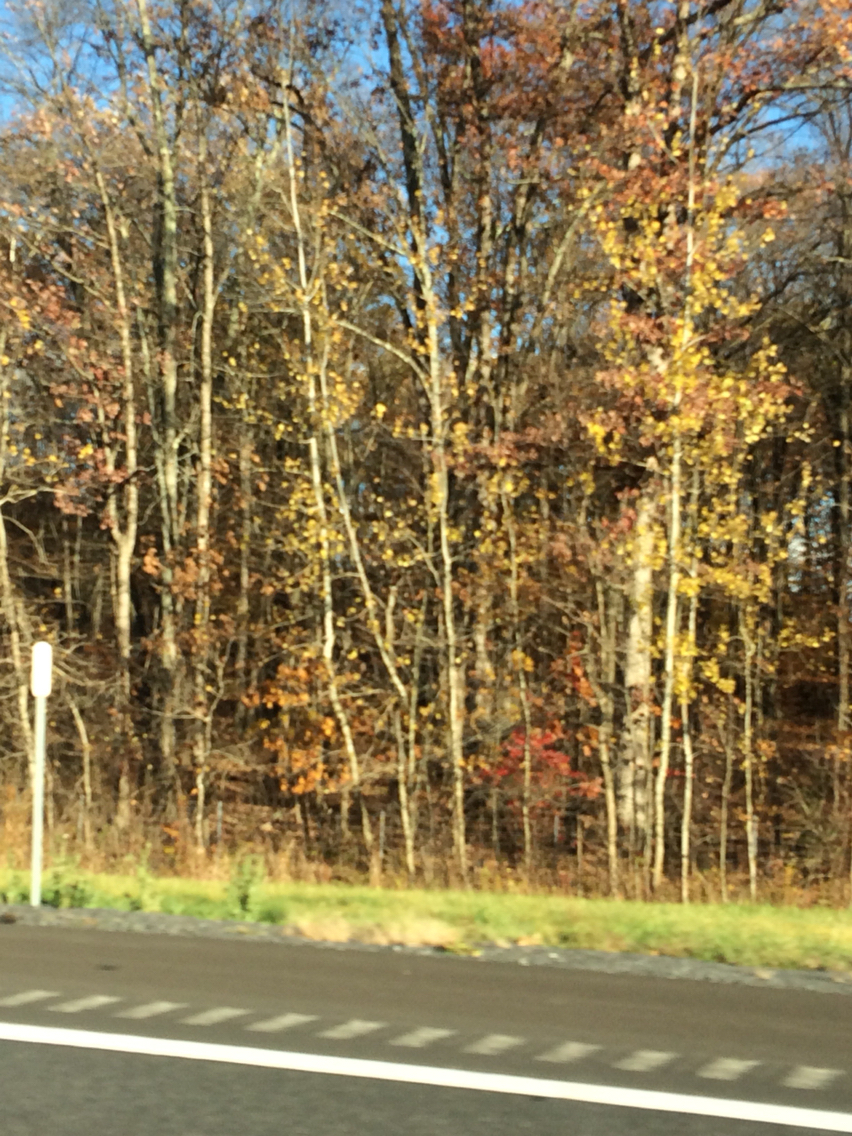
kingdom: Plantae
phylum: Tracheophyta
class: Magnoliopsida
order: Malpighiales
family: Salicaceae
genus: Populus
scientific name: Populus tremuloides
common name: Quaking aspen
